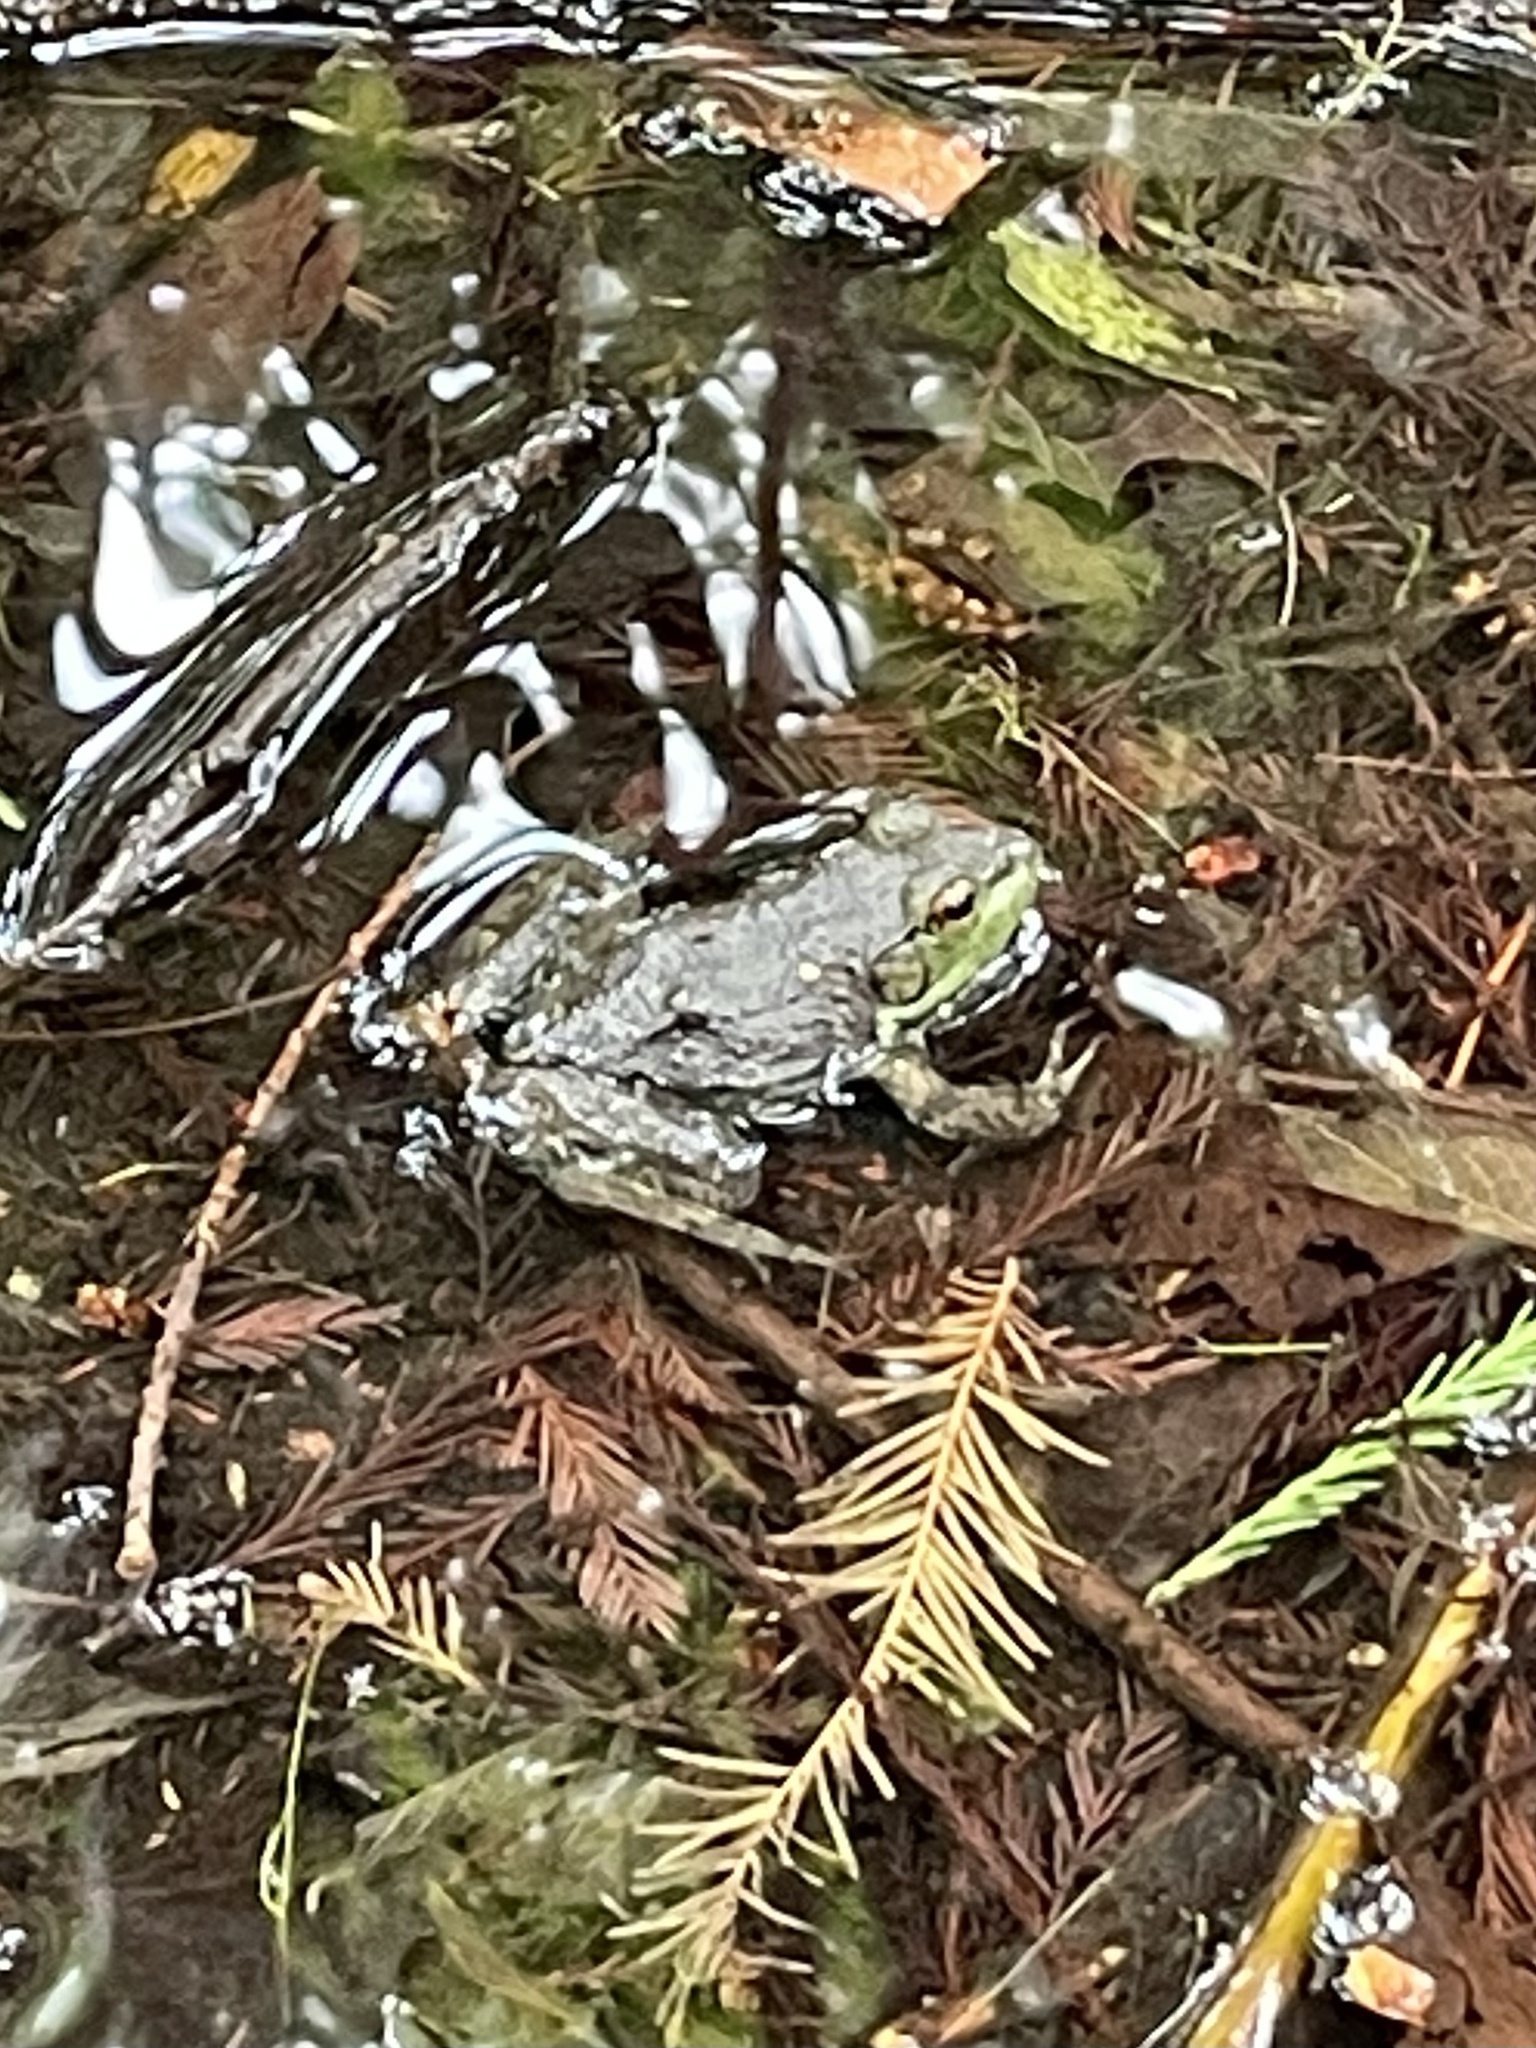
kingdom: Animalia
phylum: Chordata
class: Amphibia
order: Anura
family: Ranidae
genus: Lithobates
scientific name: Lithobates catesbeianus
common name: American bullfrog
